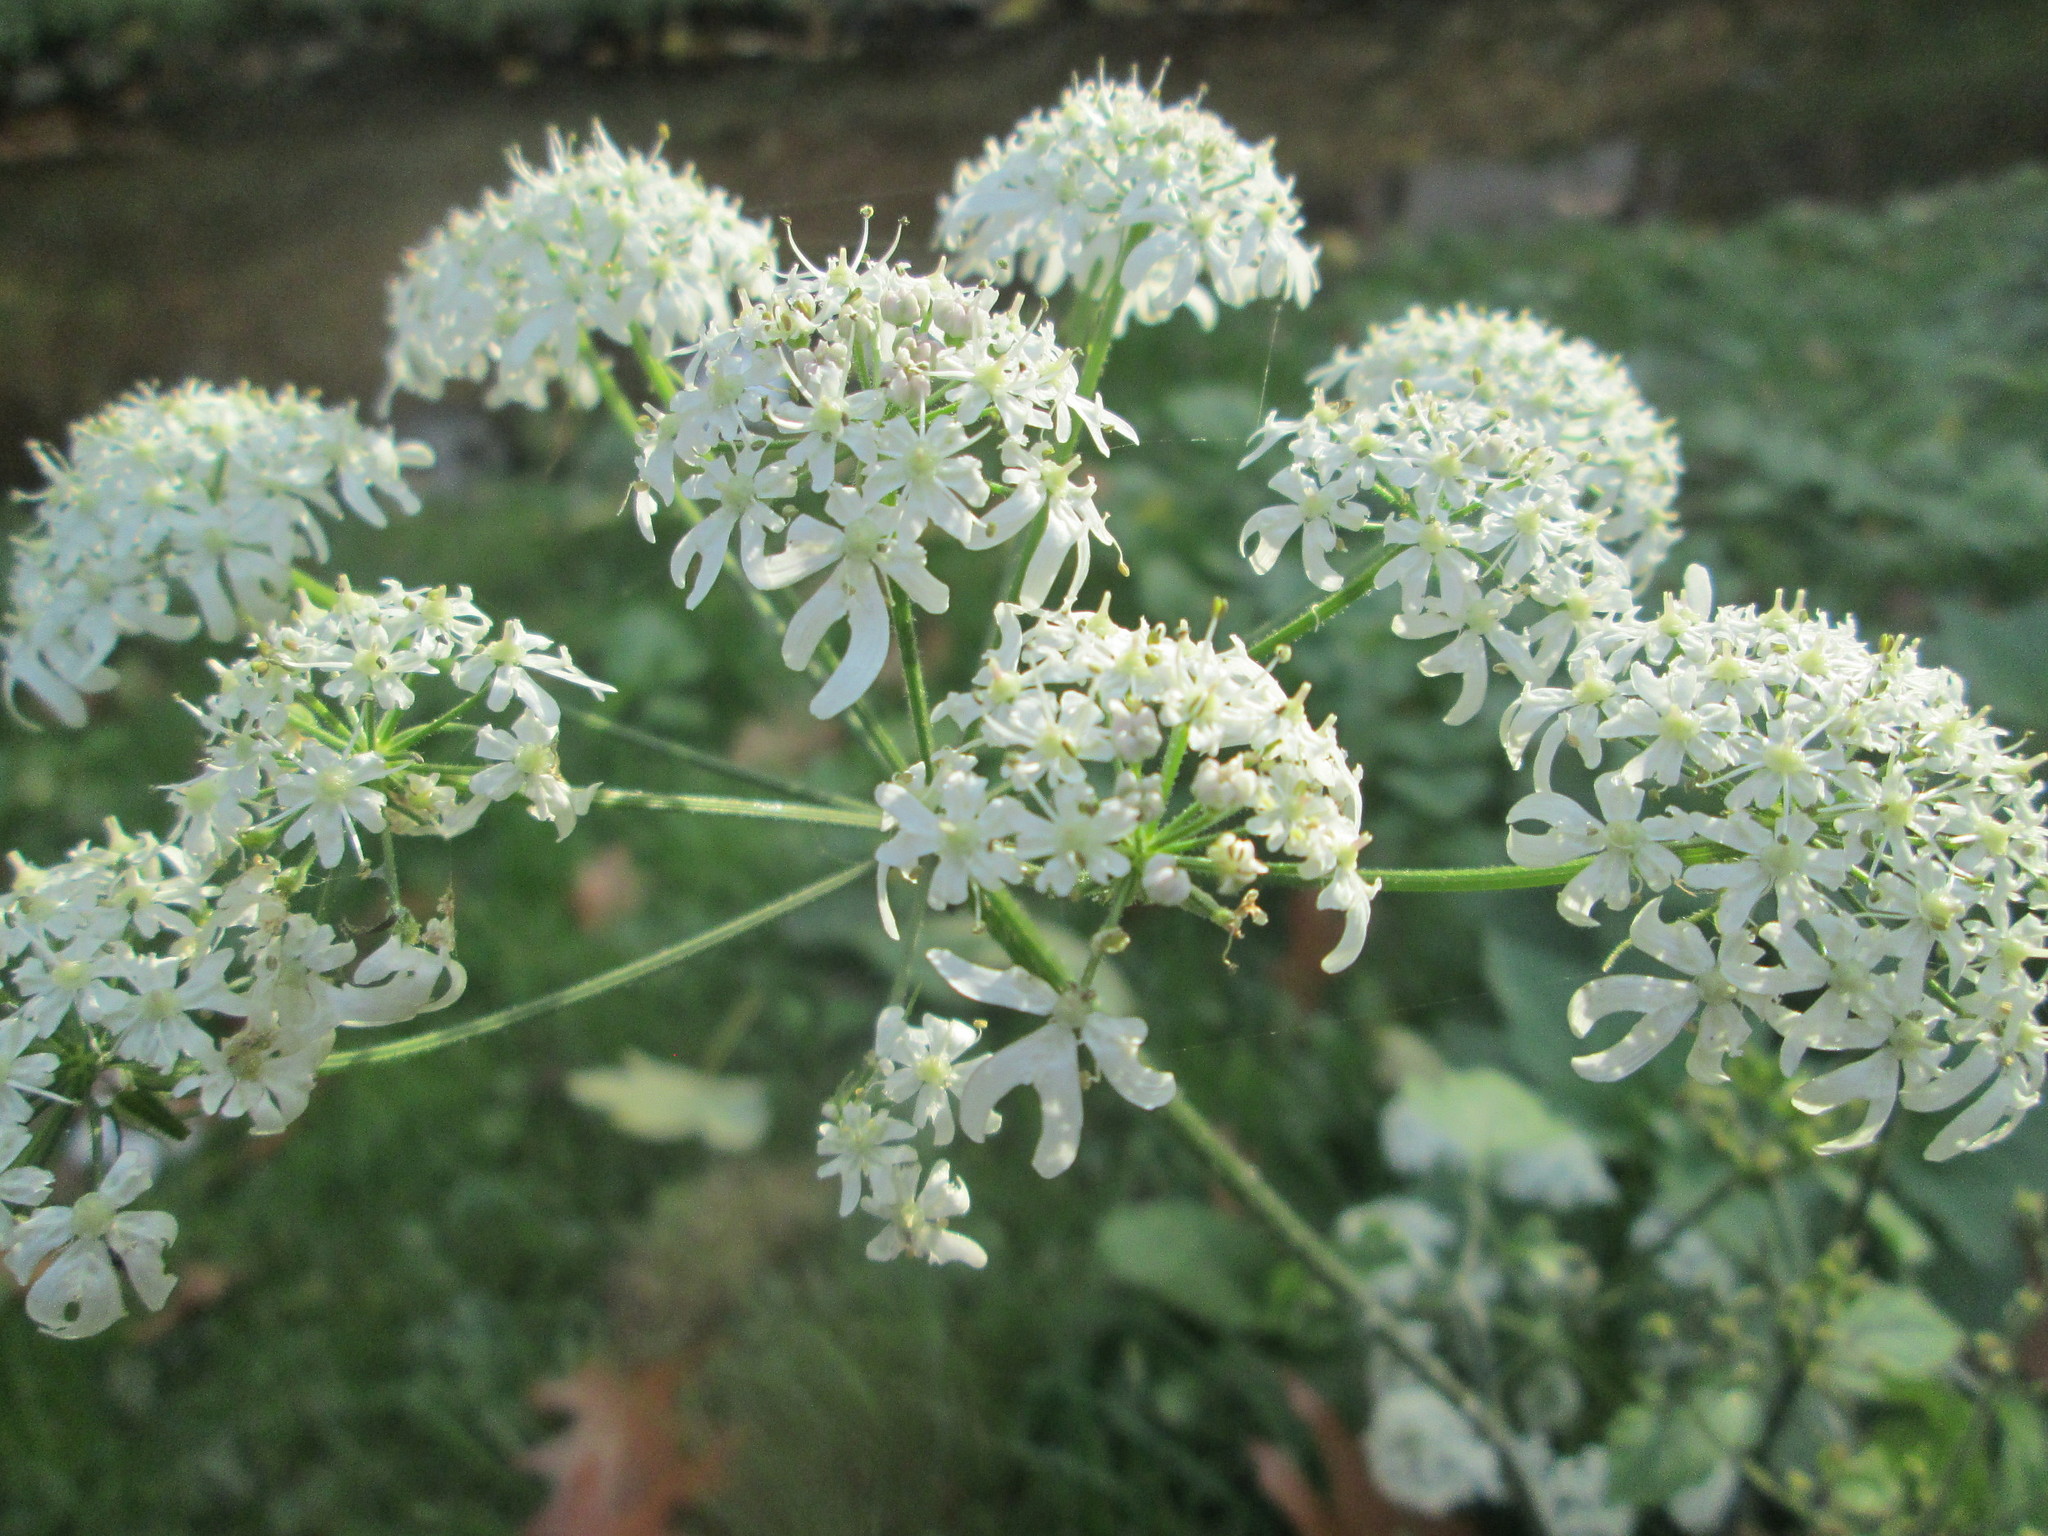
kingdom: Plantae
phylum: Tracheophyta
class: Magnoliopsida
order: Apiales
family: Apiaceae
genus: Heracleum
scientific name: Heracleum sphondylium
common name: Hogweed
